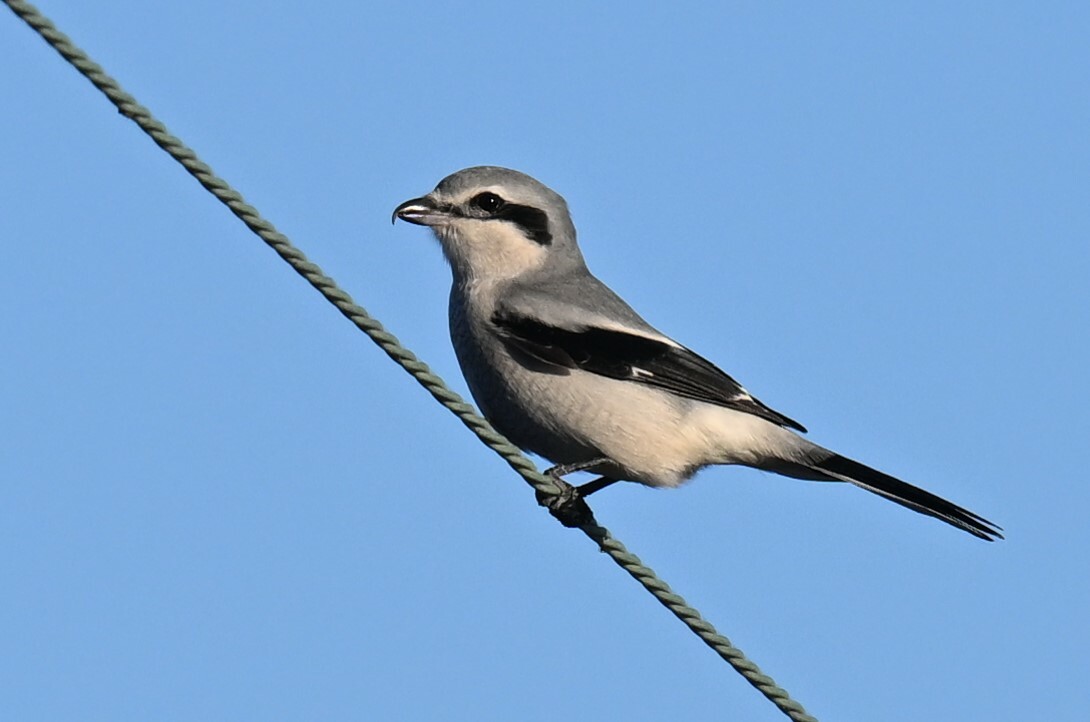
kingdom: Animalia
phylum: Chordata
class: Aves
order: Passeriformes
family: Laniidae
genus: Lanius
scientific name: Lanius borealis
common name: Northern shrike
